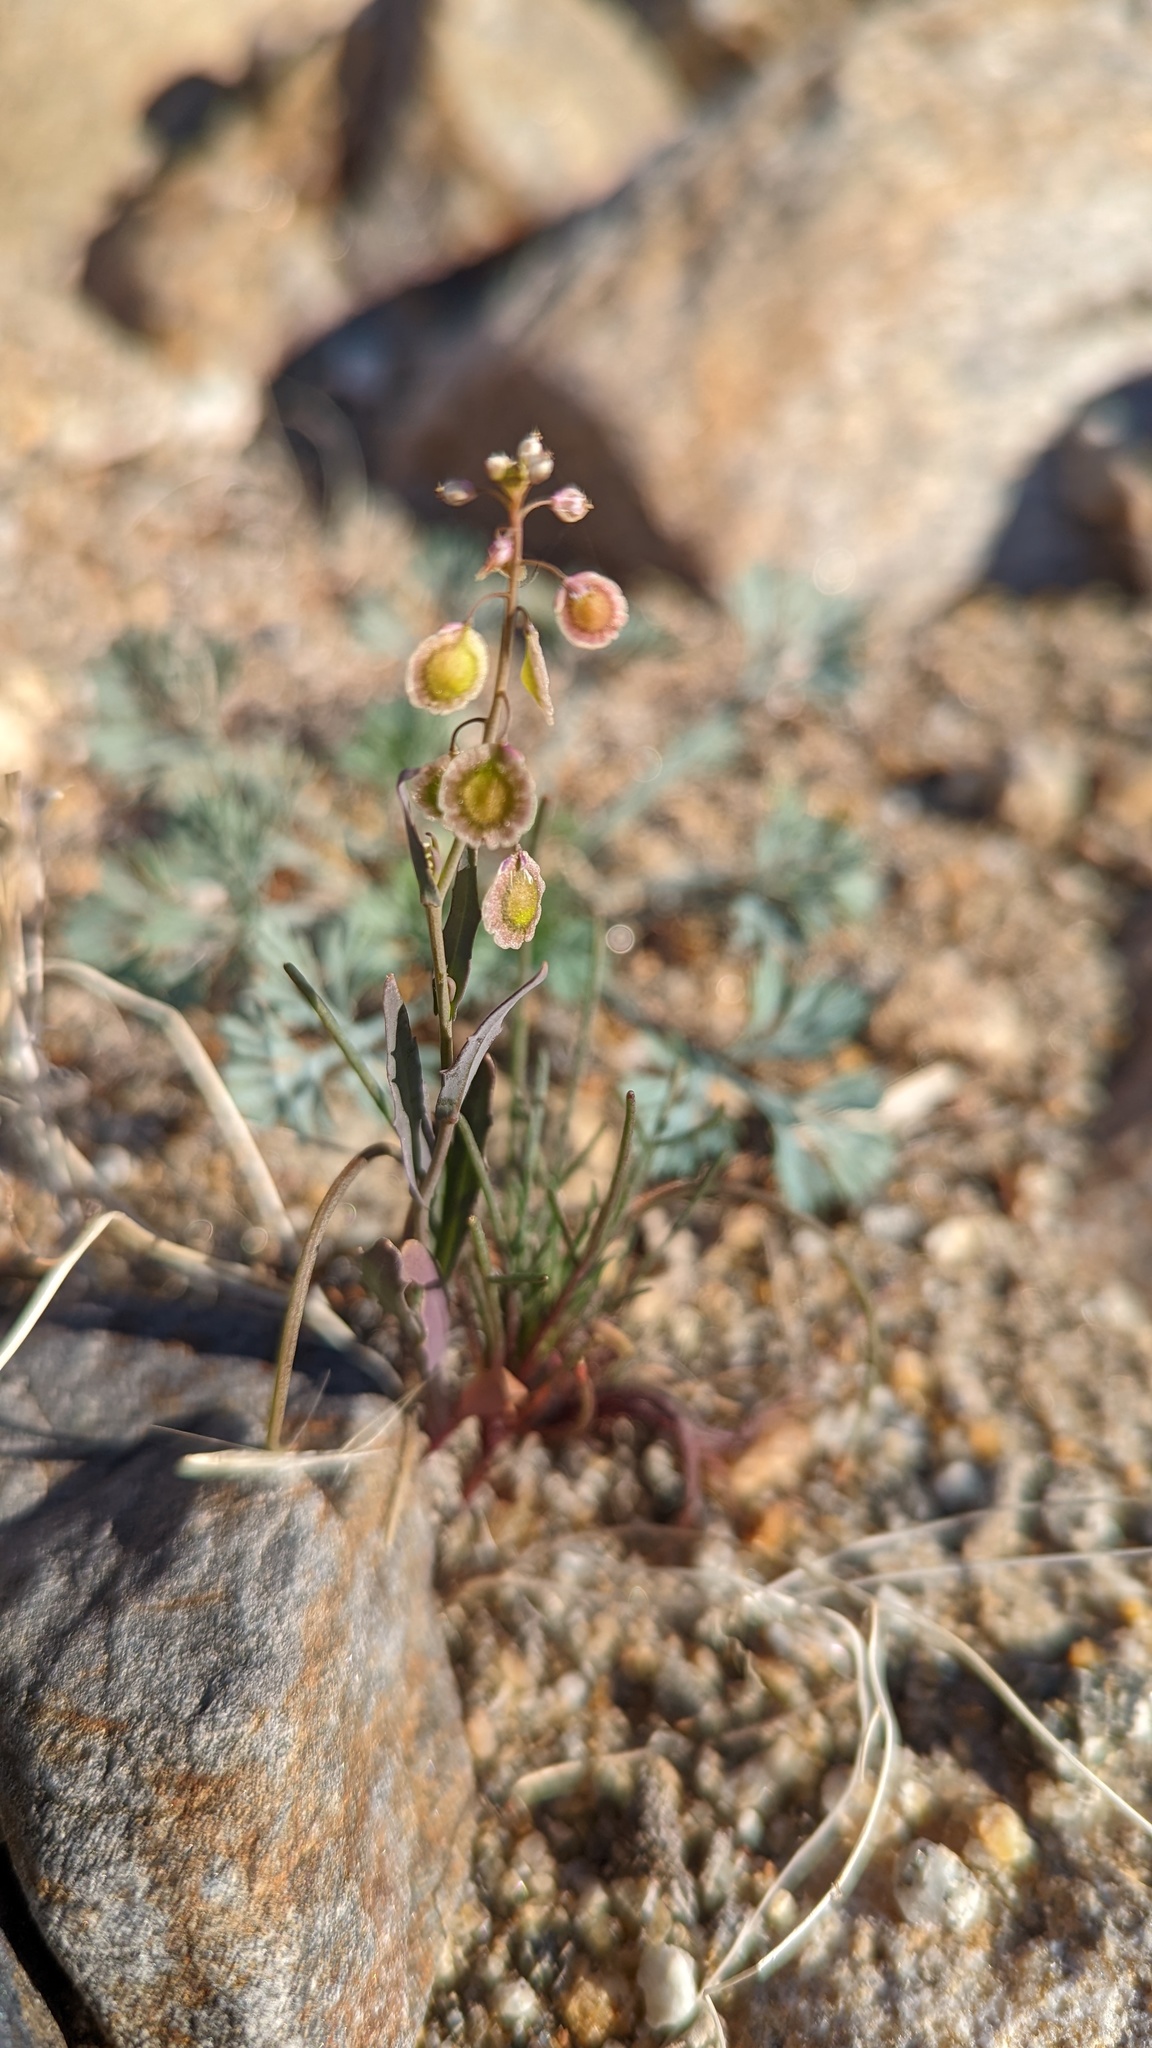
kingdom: Plantae
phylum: Tracheophyta
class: Magnoliopsida
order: Brassicales
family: Brassicaceae
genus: Thysanocarpus
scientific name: Thysanocarpus curvipes
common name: Sand fringepod
